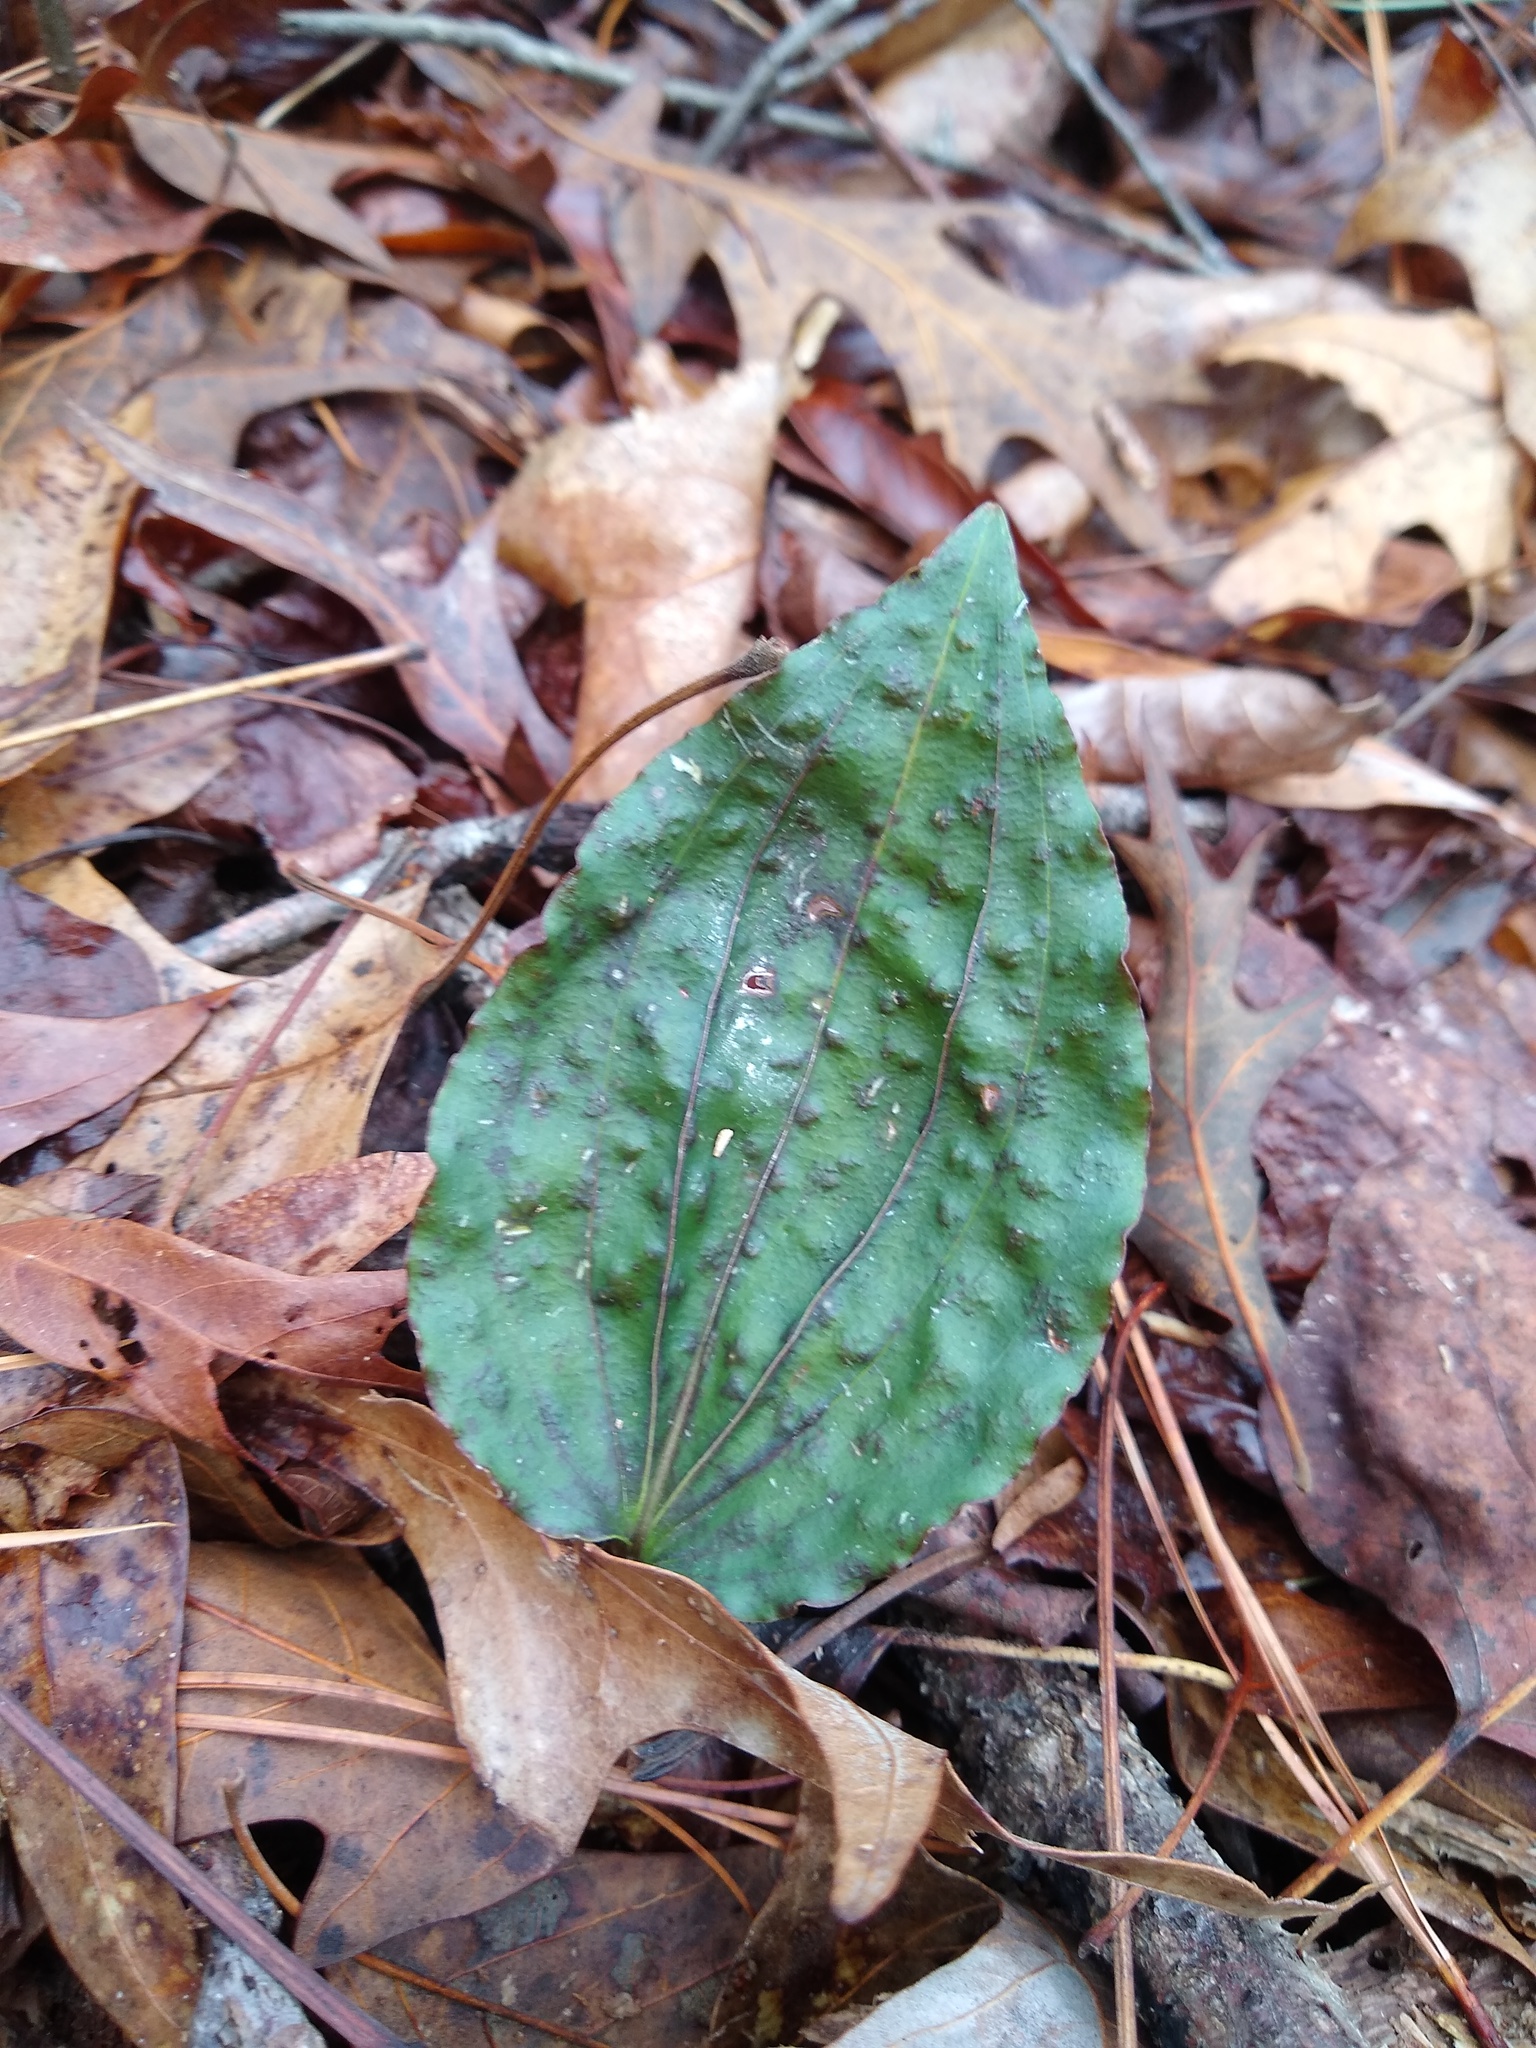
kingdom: Plantae
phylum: Tracheophyta
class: Liliopsida
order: Asparagales
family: Orchidaceae
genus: Tipularia
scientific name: Tipularia discolor
